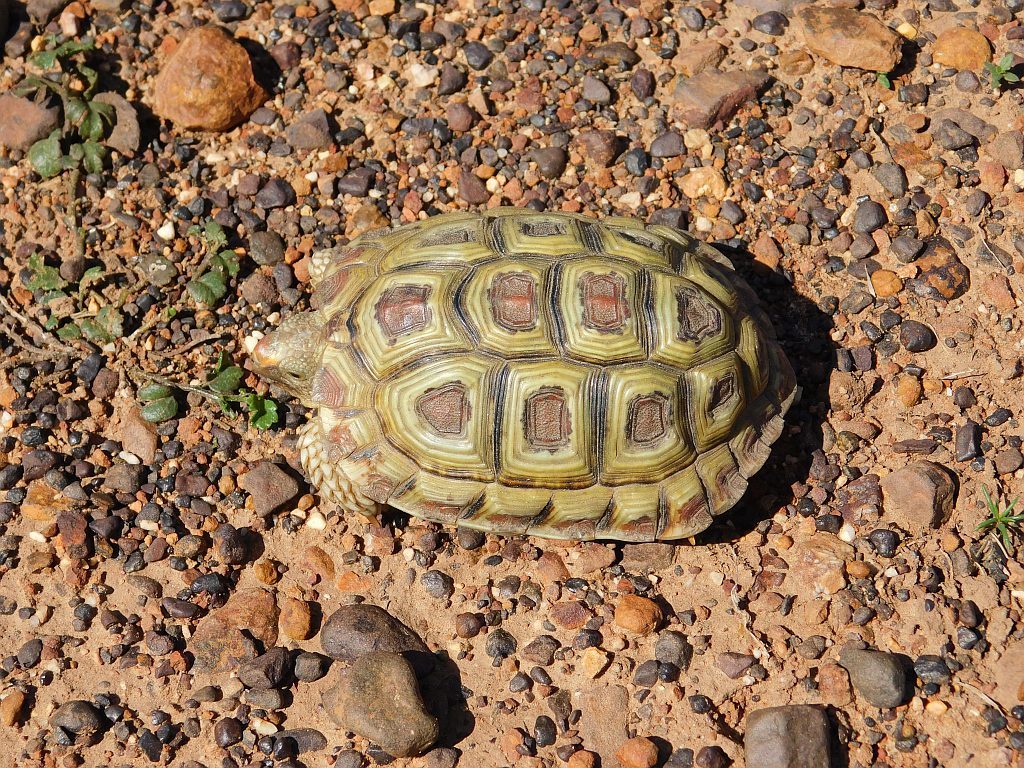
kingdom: Animalia
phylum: Chordata
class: Testudines
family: Testudinidae
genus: Homopus
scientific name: Homopus areolatus
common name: Parrot-beaked tortoise
